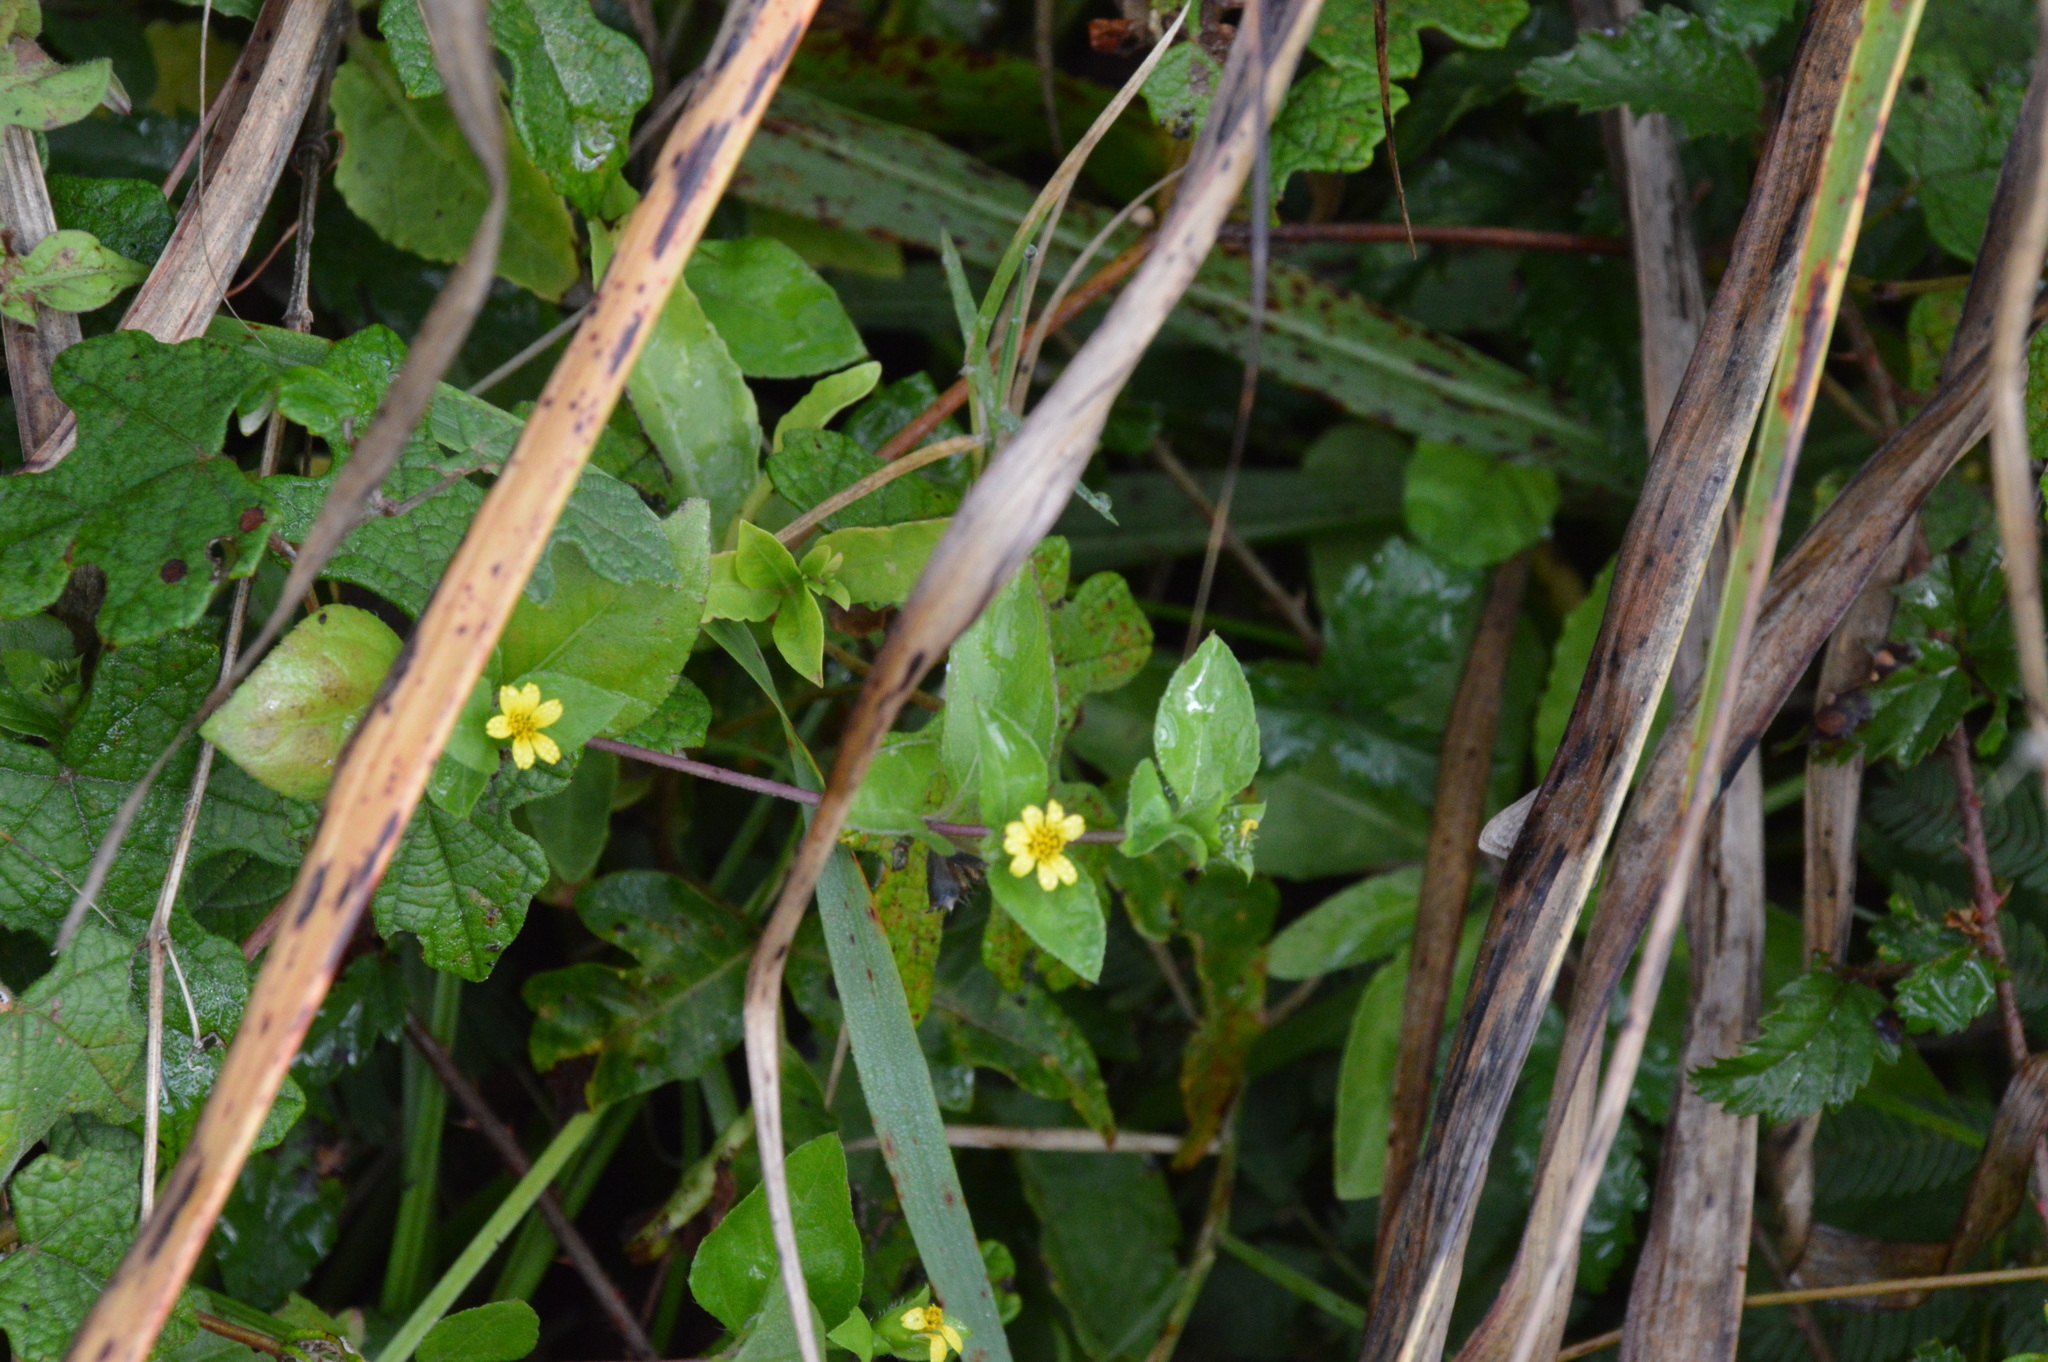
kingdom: Plantae
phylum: Tracheophyta
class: Magnoliopsida
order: Asterales
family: Asteraceae
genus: Calyptocarpus
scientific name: Calyptocarpus vialis
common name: Straggler daisy
